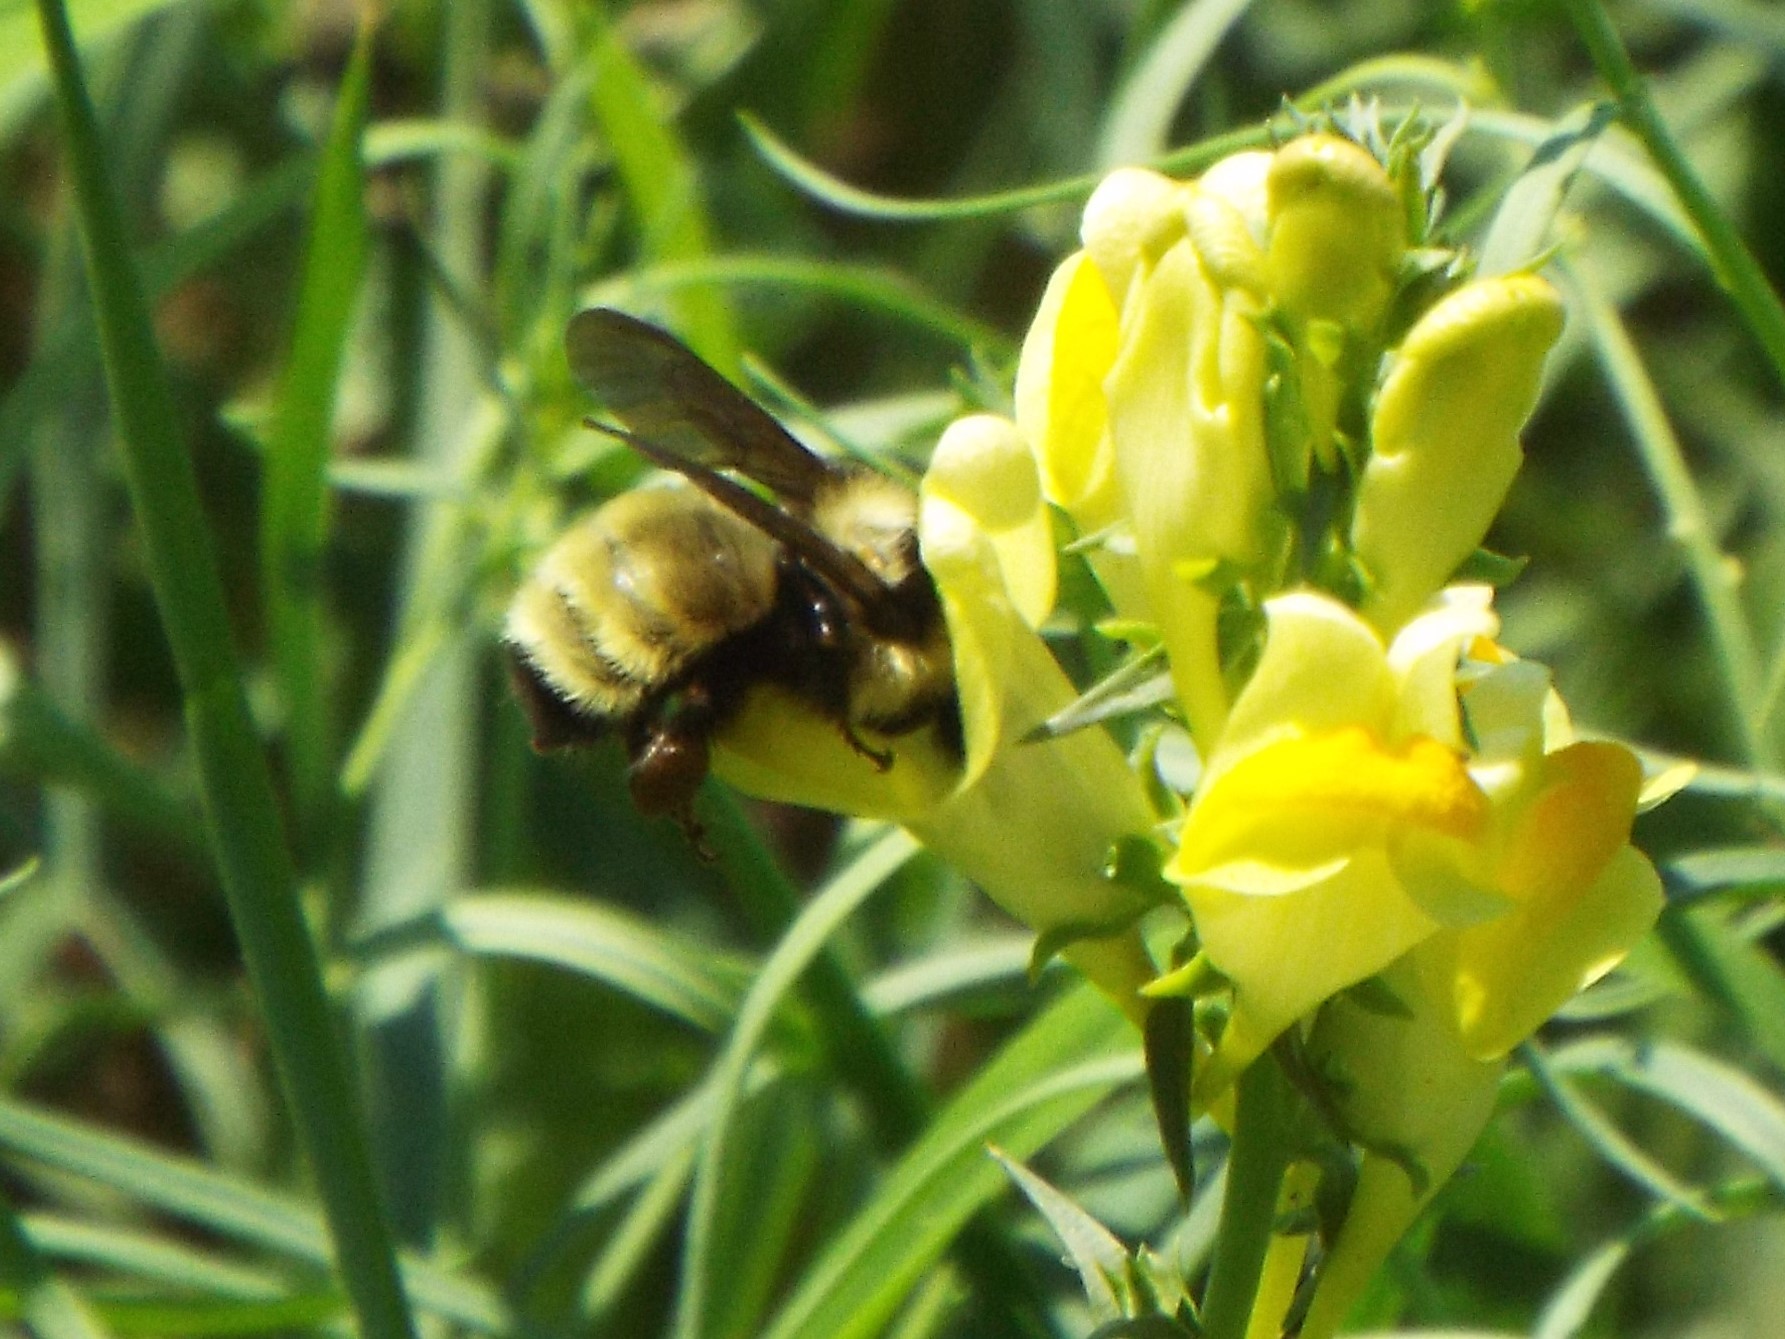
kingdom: Animalia
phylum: Arthropoda
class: Insecta
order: Hymenoptera
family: Apidae
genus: Bombus
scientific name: Bombus fervidus
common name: Yellow bumble bee
